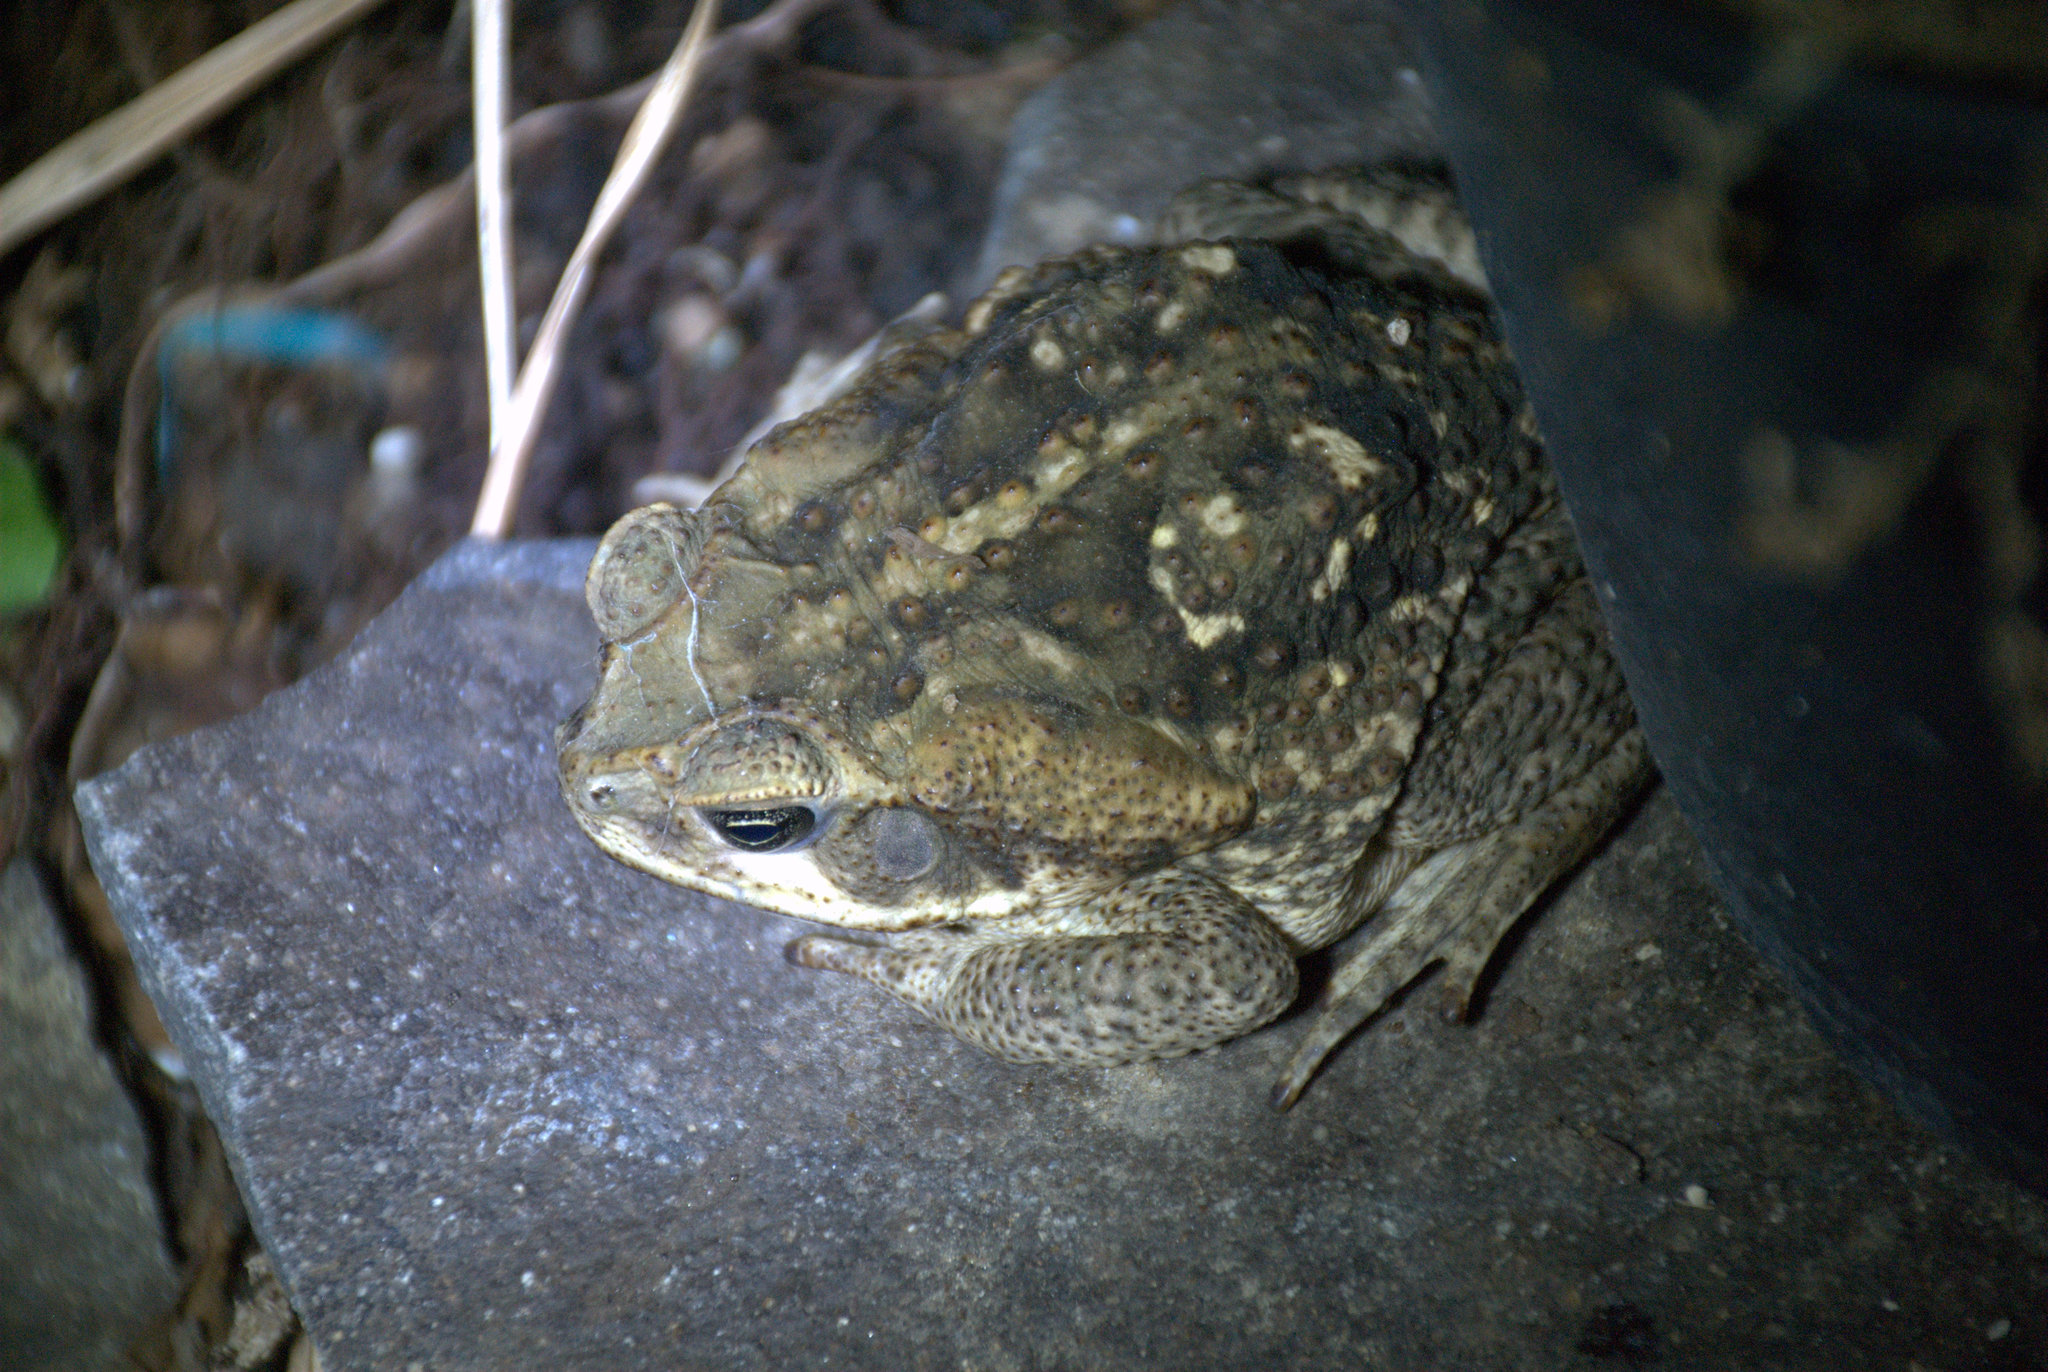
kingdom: Animalia
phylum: Chordata
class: Amphibia
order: Anura
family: Bufonidae
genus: Rhinella
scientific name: Rhinella horribilis
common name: Mesoamerican cane toad
